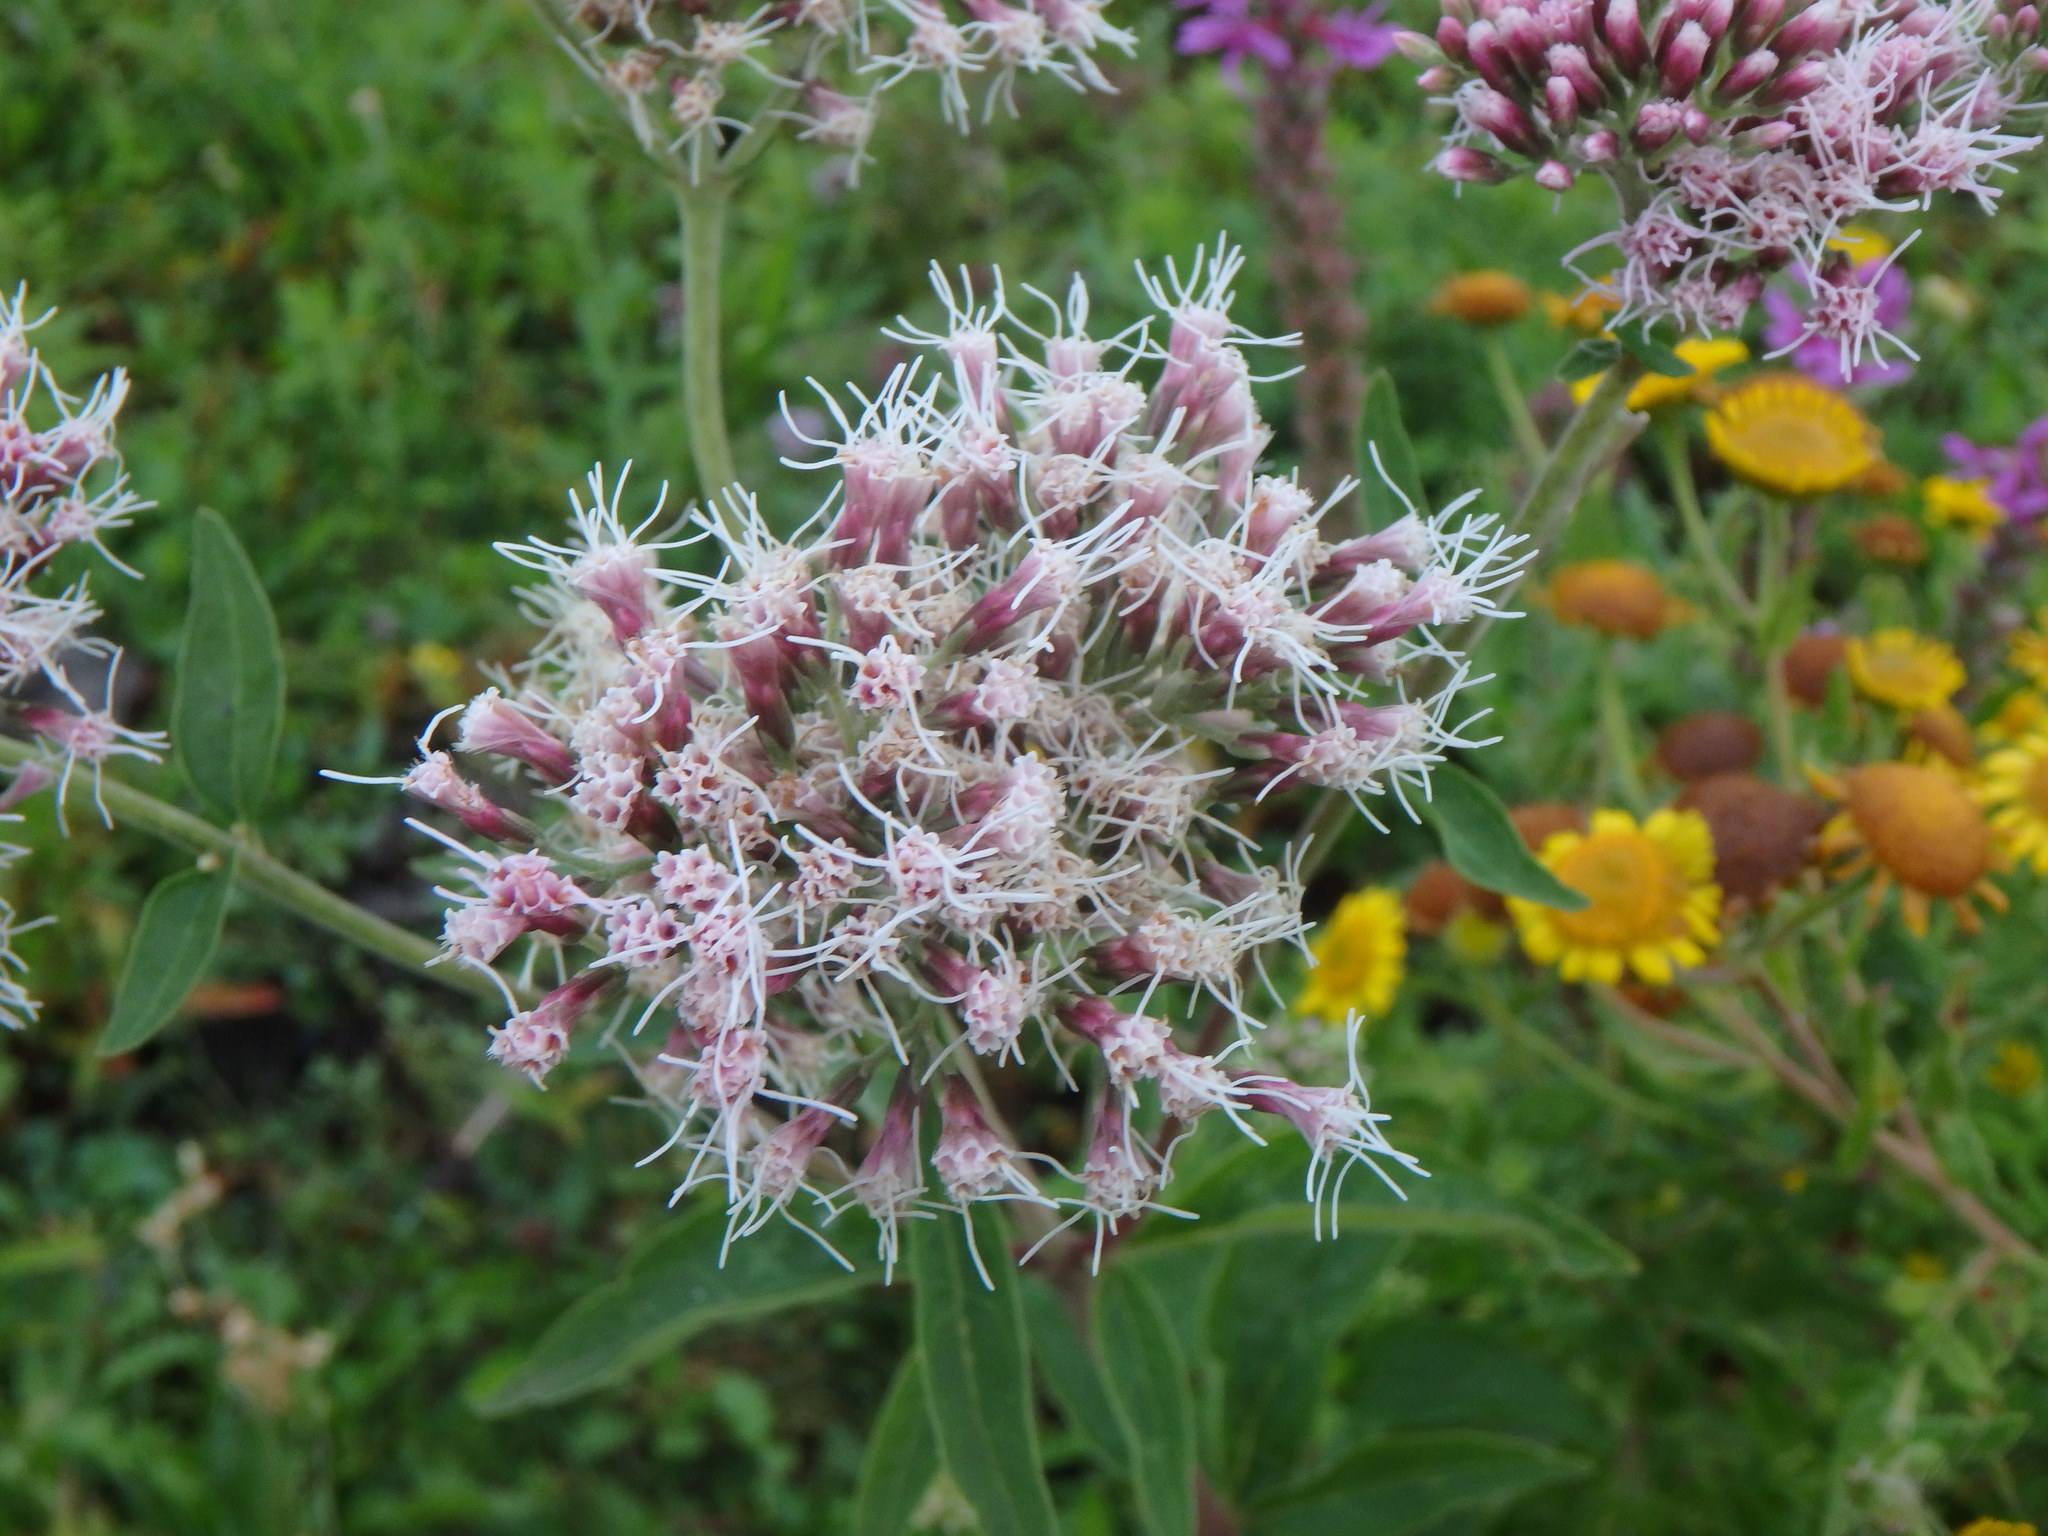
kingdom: Plantae
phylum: Tracheophyta
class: Magnoliopsida
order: Asterales
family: Asteraceae
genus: Eupatorium
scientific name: Eupatorium cannabinum
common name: Hemp-agrimony
